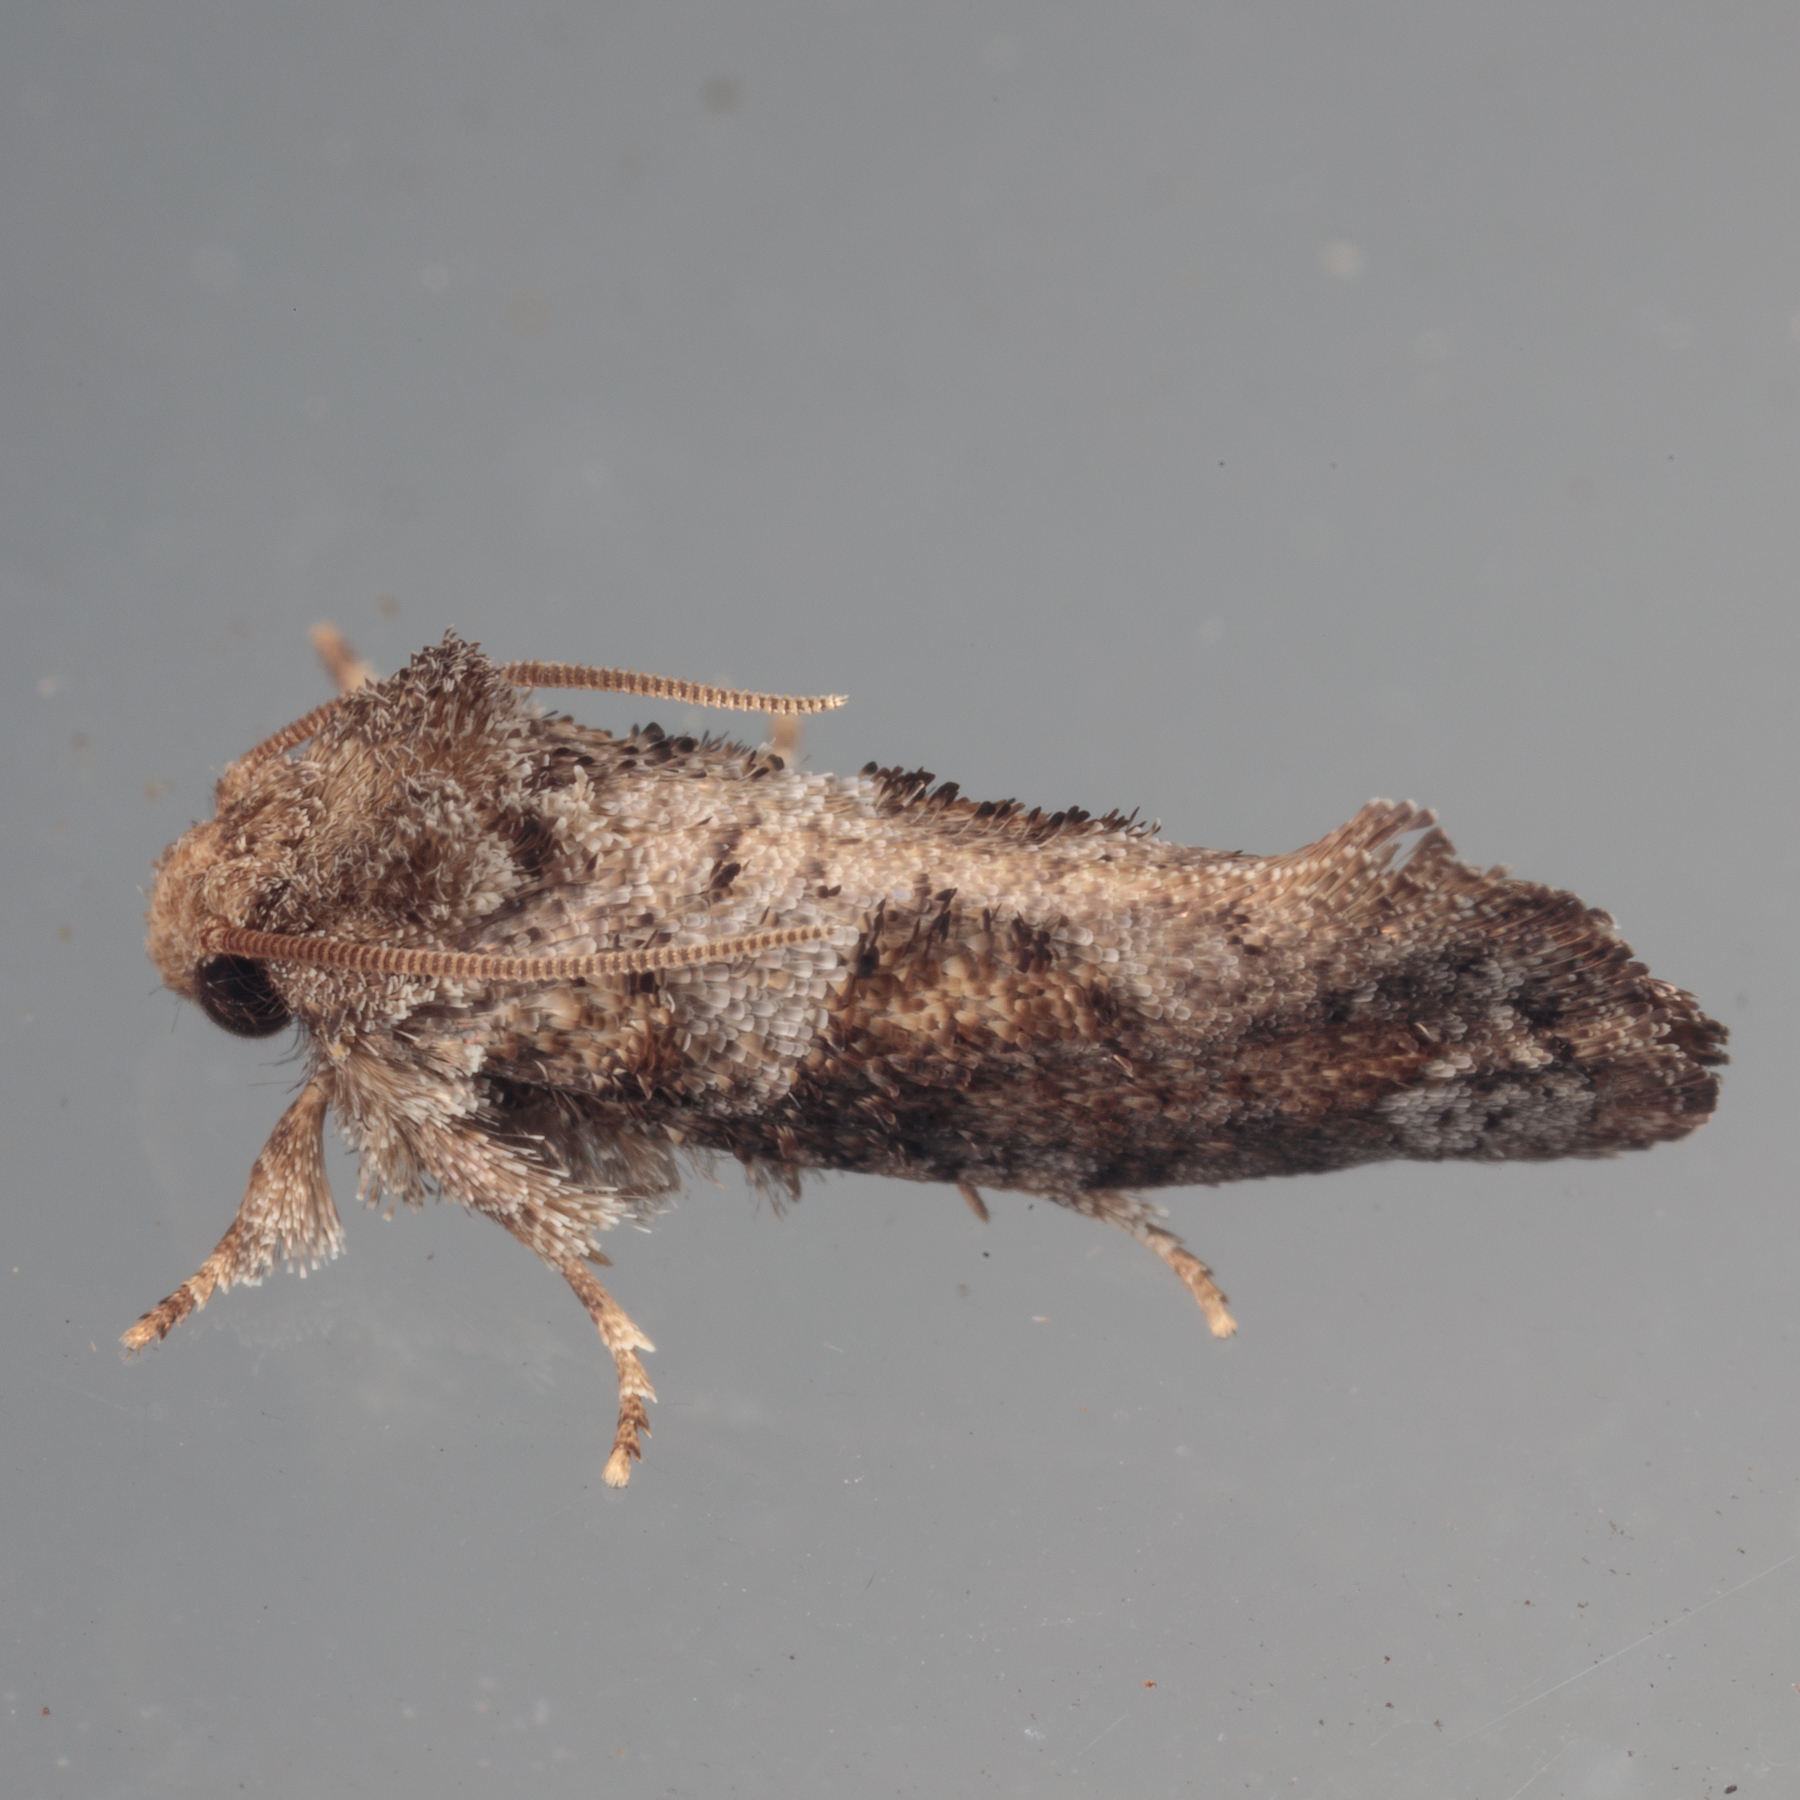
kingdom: Animalia
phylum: Arthropoda
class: Insecta
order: Lepidoptera
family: Tineidae
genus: Acrolophus
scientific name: Acrolophus piger
